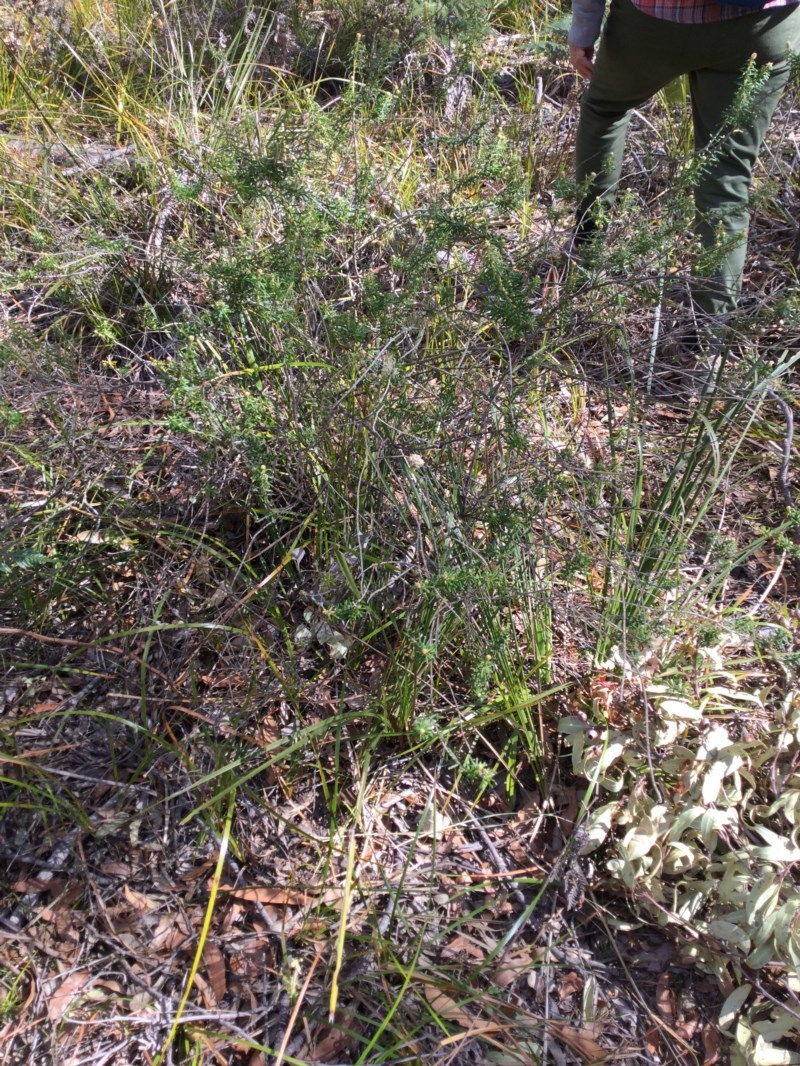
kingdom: Plantae
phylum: Tracheophyta
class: Magnoliopsida
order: Apiales
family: Araliaceae
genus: Astrotricha
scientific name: Astrotricha
